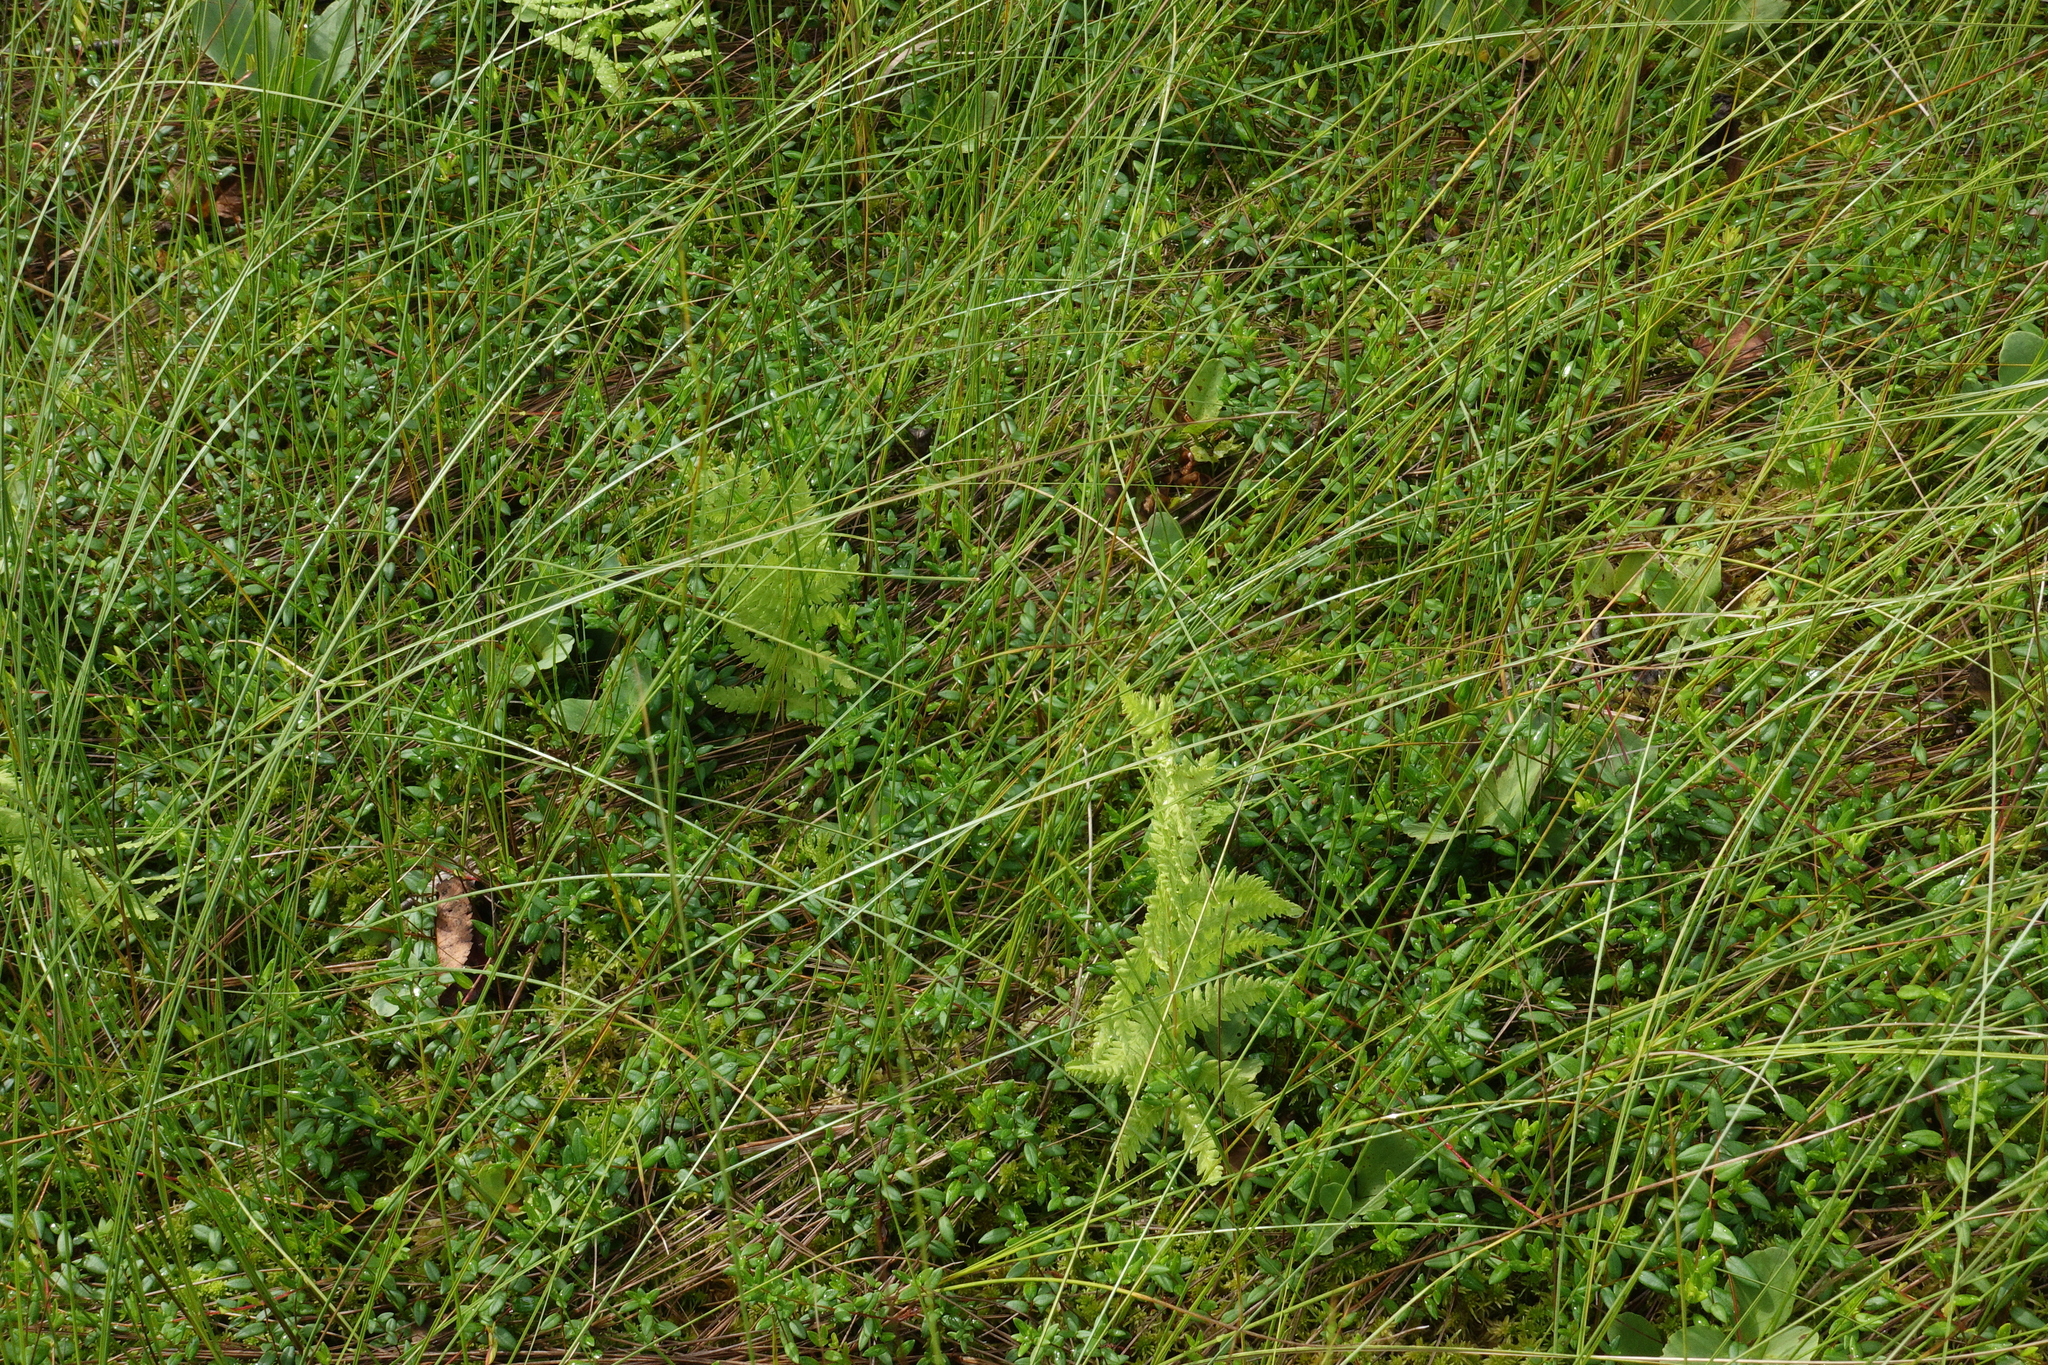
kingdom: Plantae
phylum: Tracheophyta
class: Magnoliopsida
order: Ericales
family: Ericaceae
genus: Vaccinium
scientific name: Vaccinium oxycoccos
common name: Cranberry
